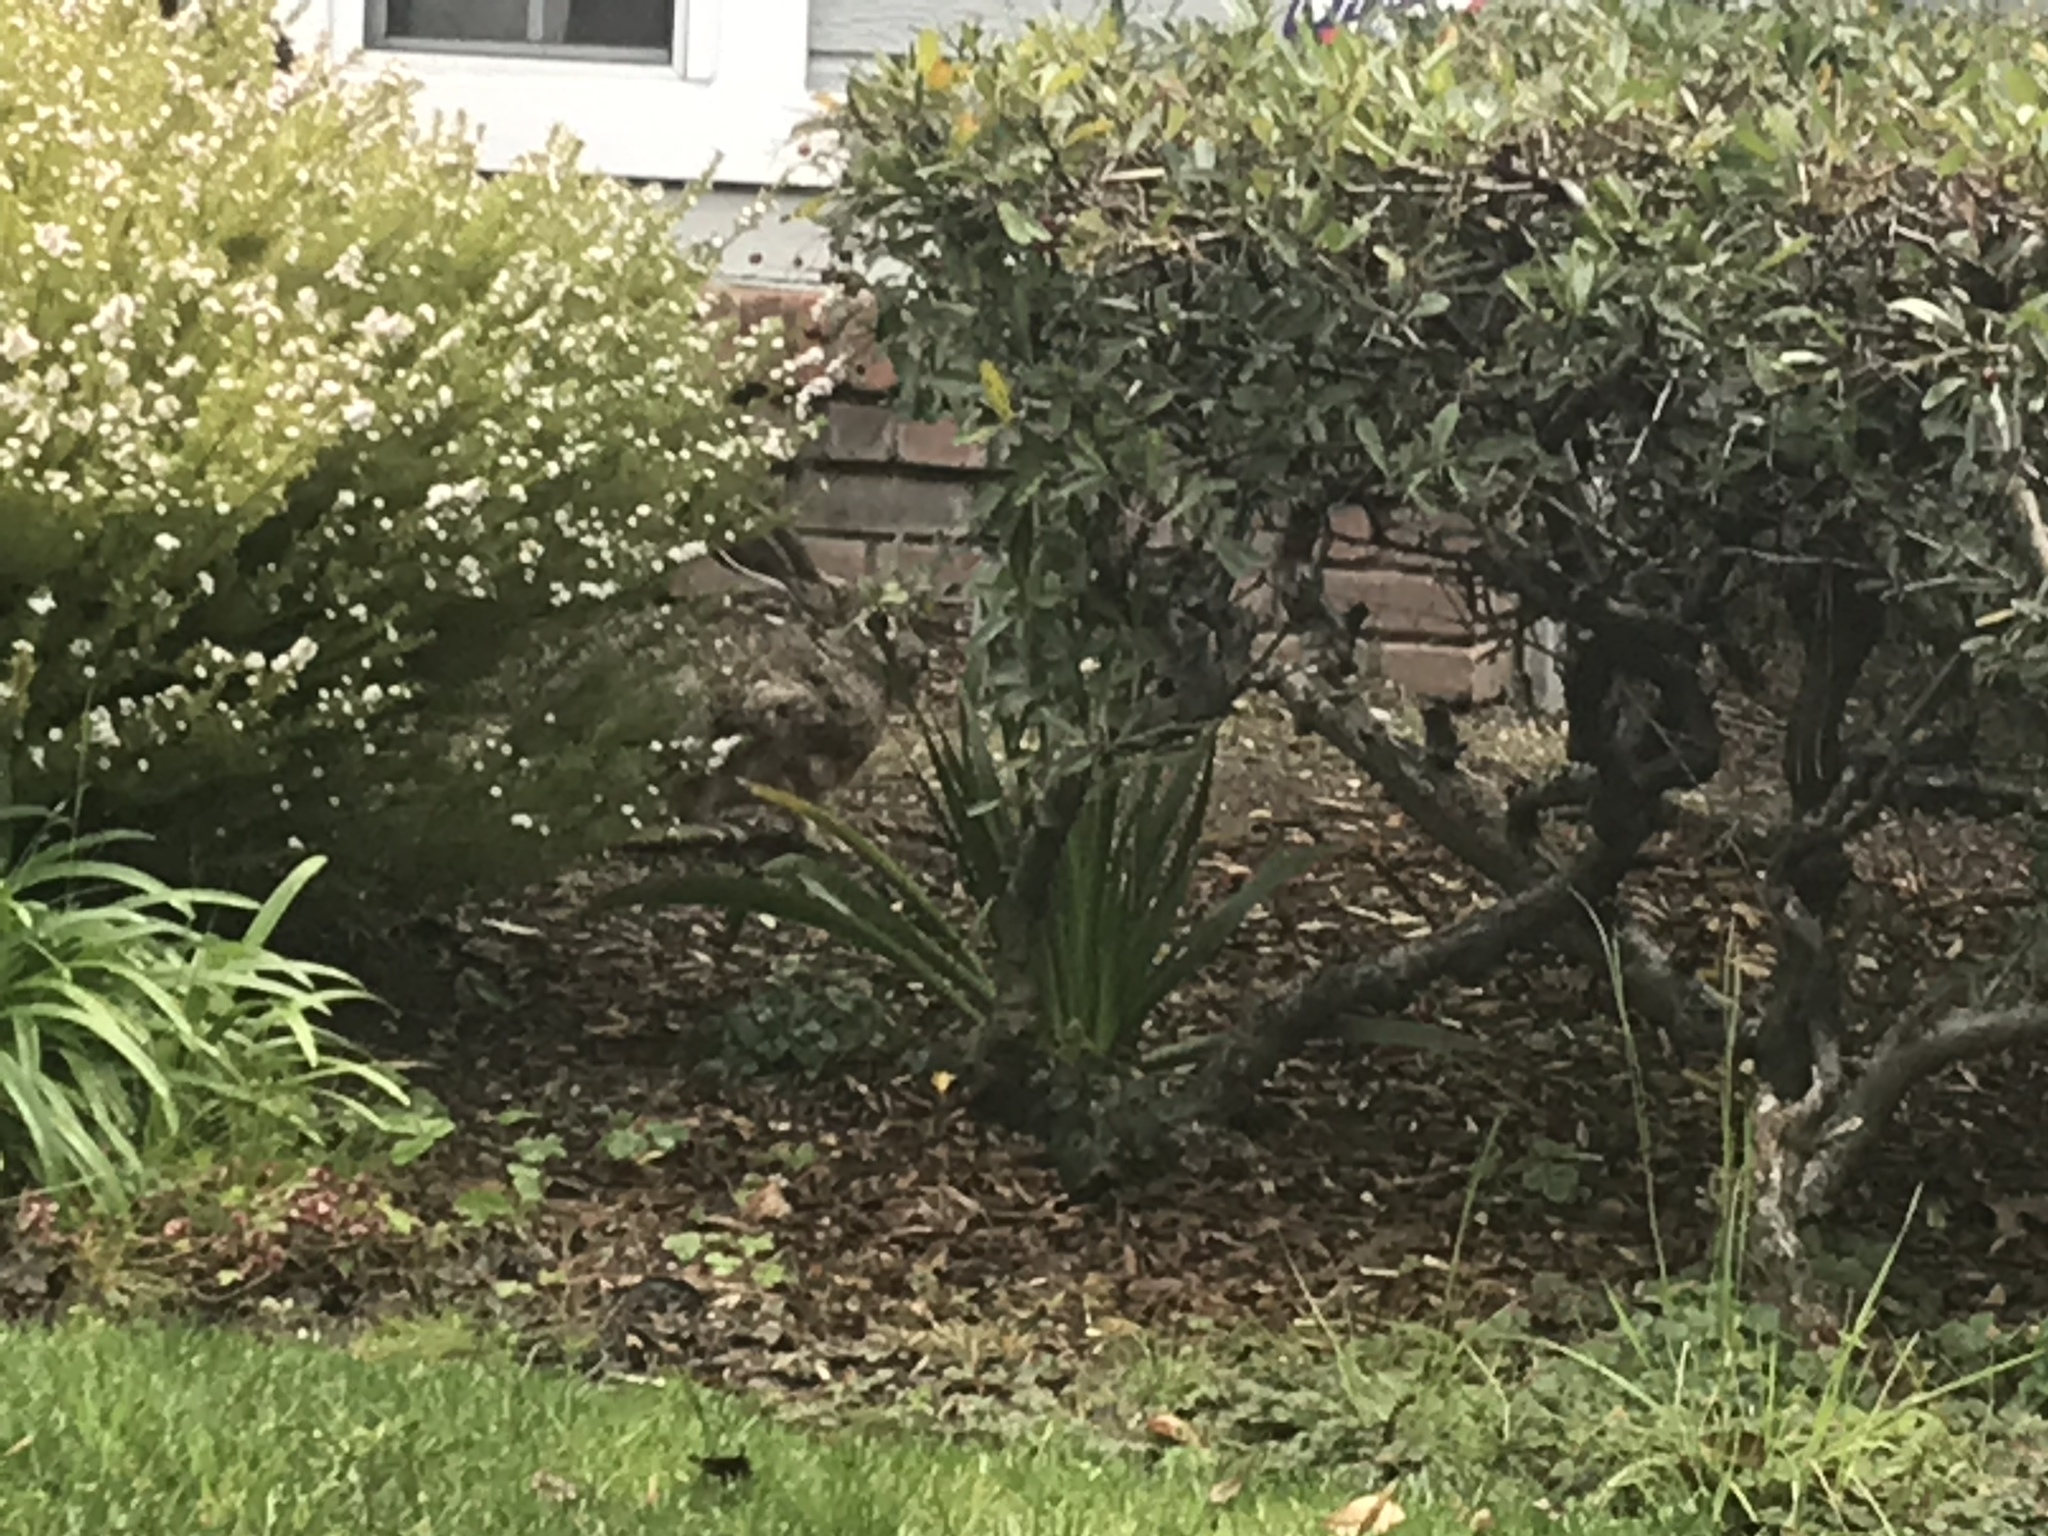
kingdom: Animalia
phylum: Chordata
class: Mammalia
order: Lagomorpha
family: Leporidae
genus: Lepus
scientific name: Lepus californicus
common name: Black-tailed jackrabbit
